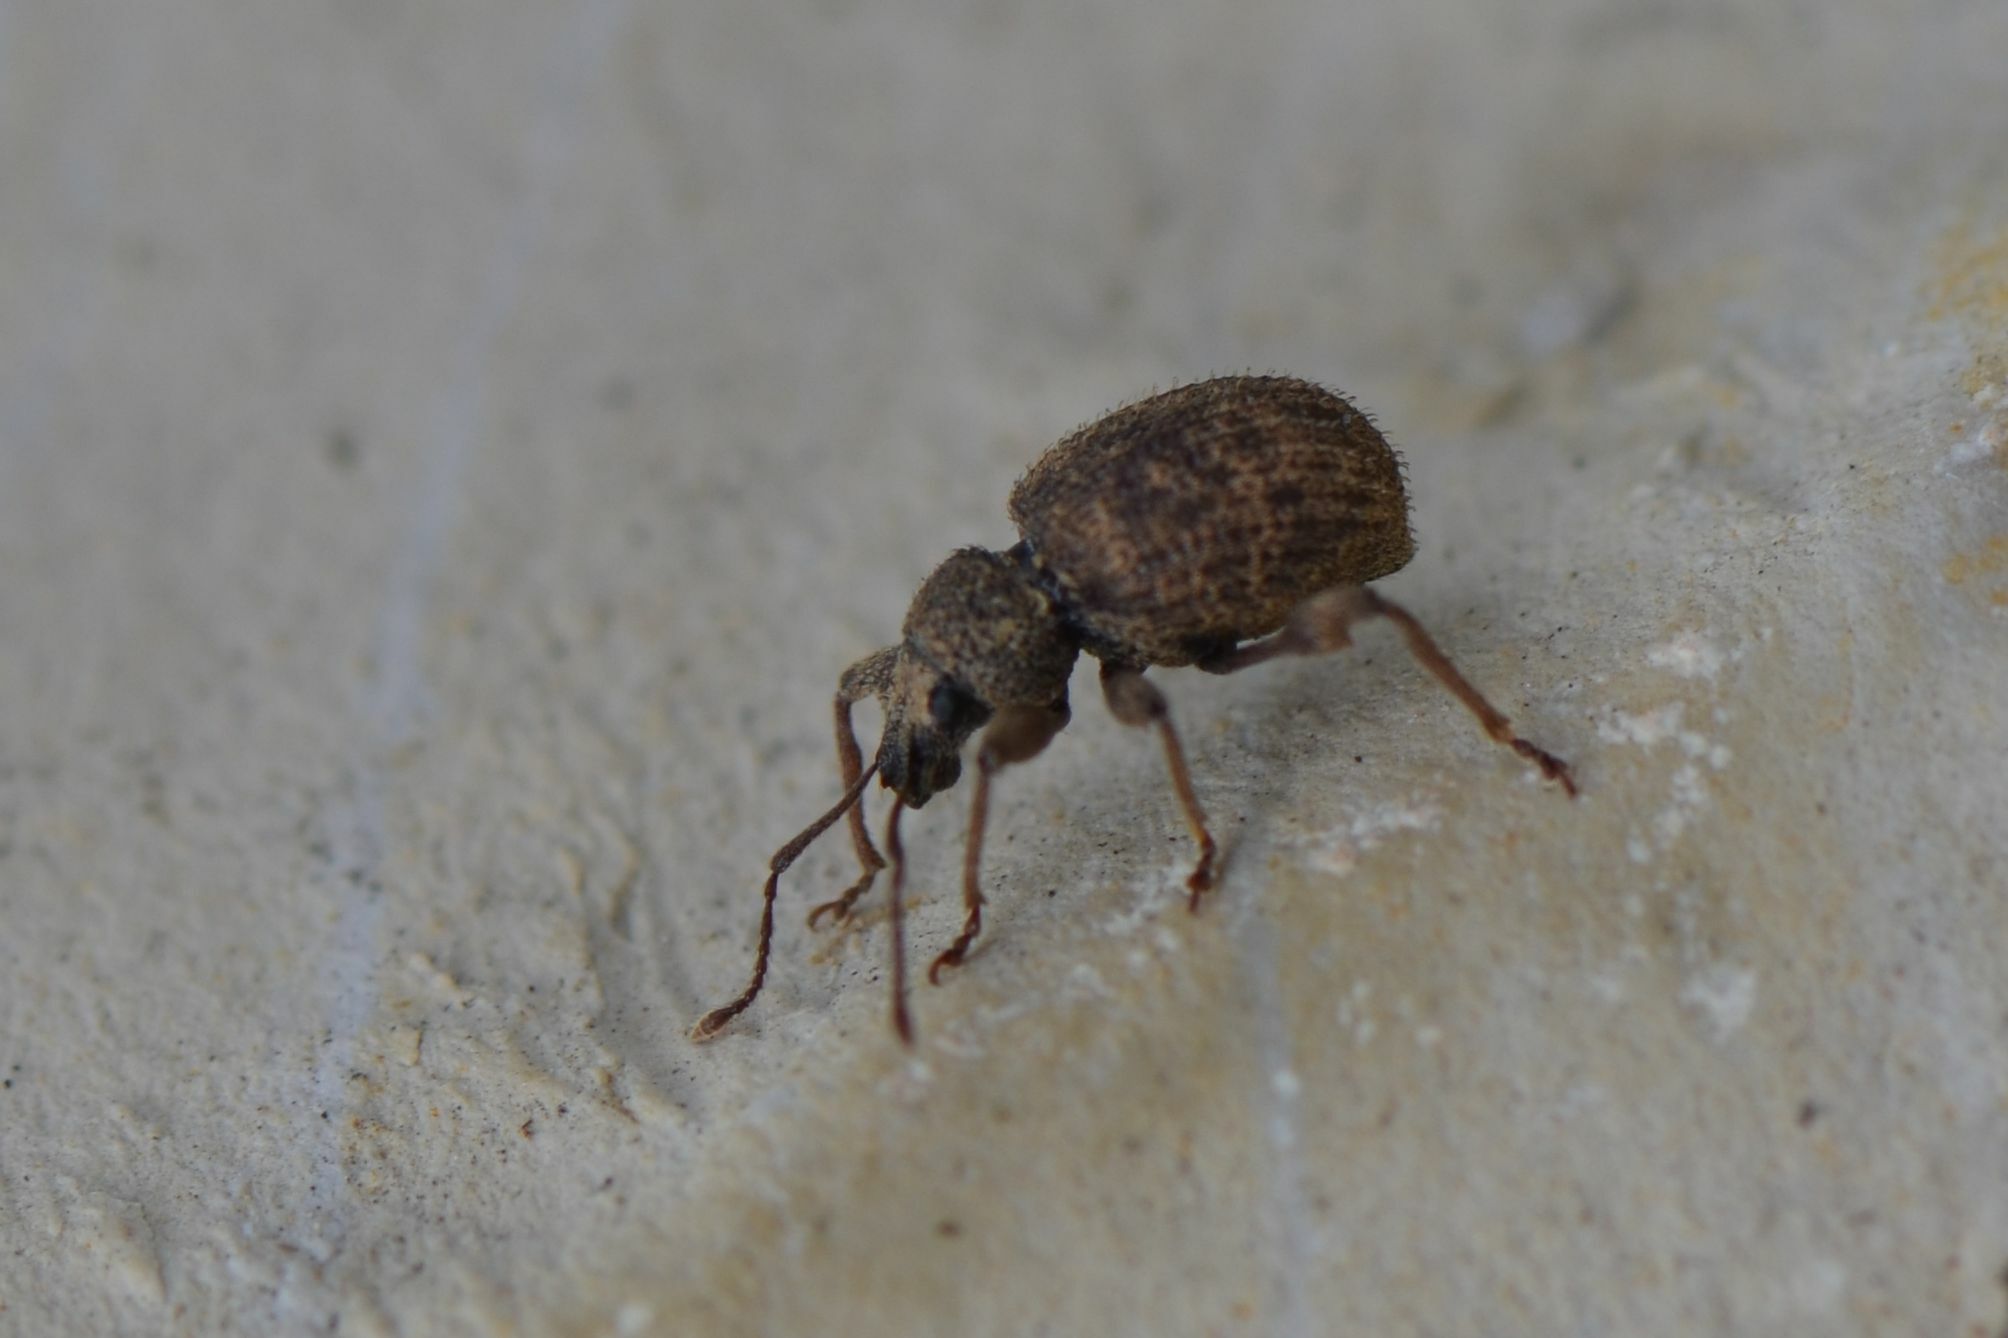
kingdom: Animalia
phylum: Arthropoda
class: Insecta
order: Coleoptera
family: Curculionidae
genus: Otiorhynchus
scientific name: Otiorhynchus crataegi
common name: Privet weevil
